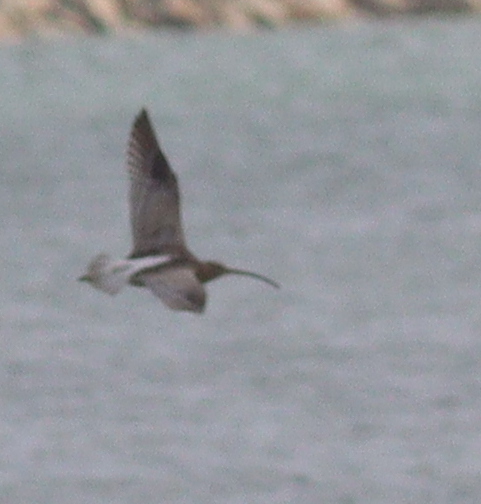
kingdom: Animalia
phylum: Chordata
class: Aves
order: Charadriiformes
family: Scolopacidae
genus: Numenius
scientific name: Numenius arquata
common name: Eurasian curlew
